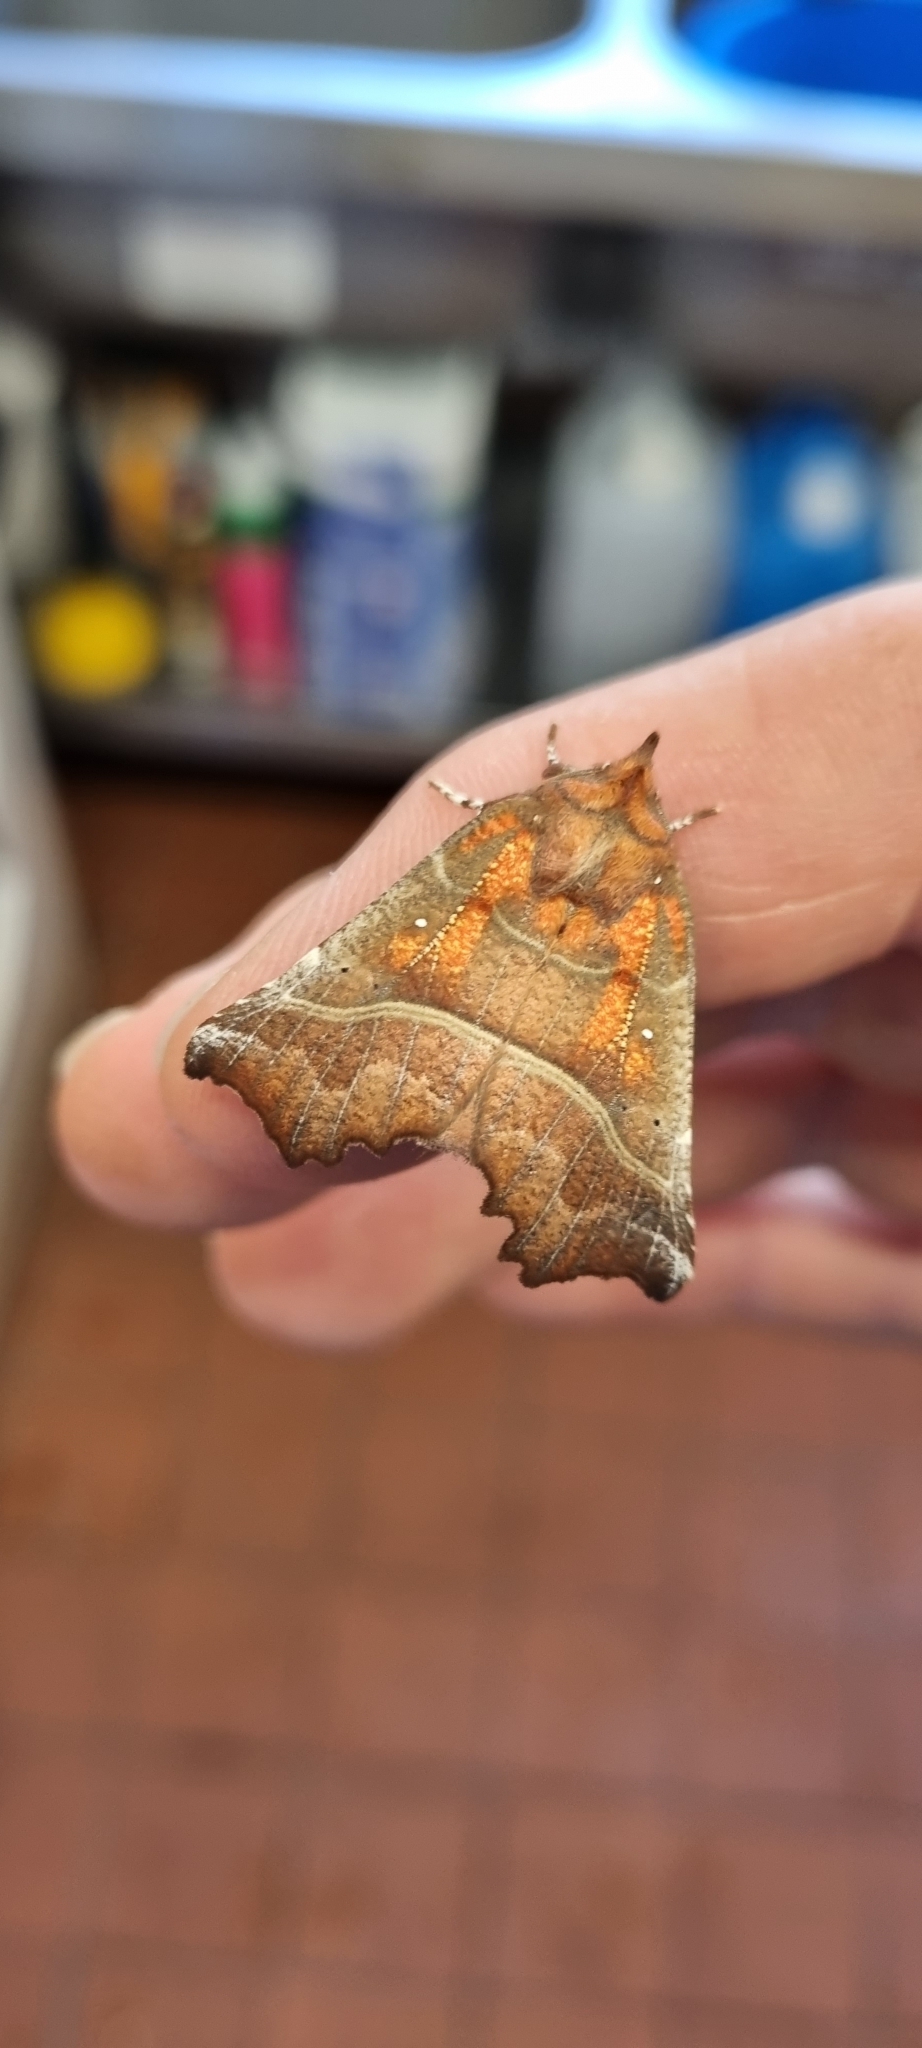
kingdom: Animalia
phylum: Arthropoda
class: Insecta
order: Lepidoptera
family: Erebidae
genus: Scoliopteryx
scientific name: Scoliopteryx libatrix
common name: Herald
